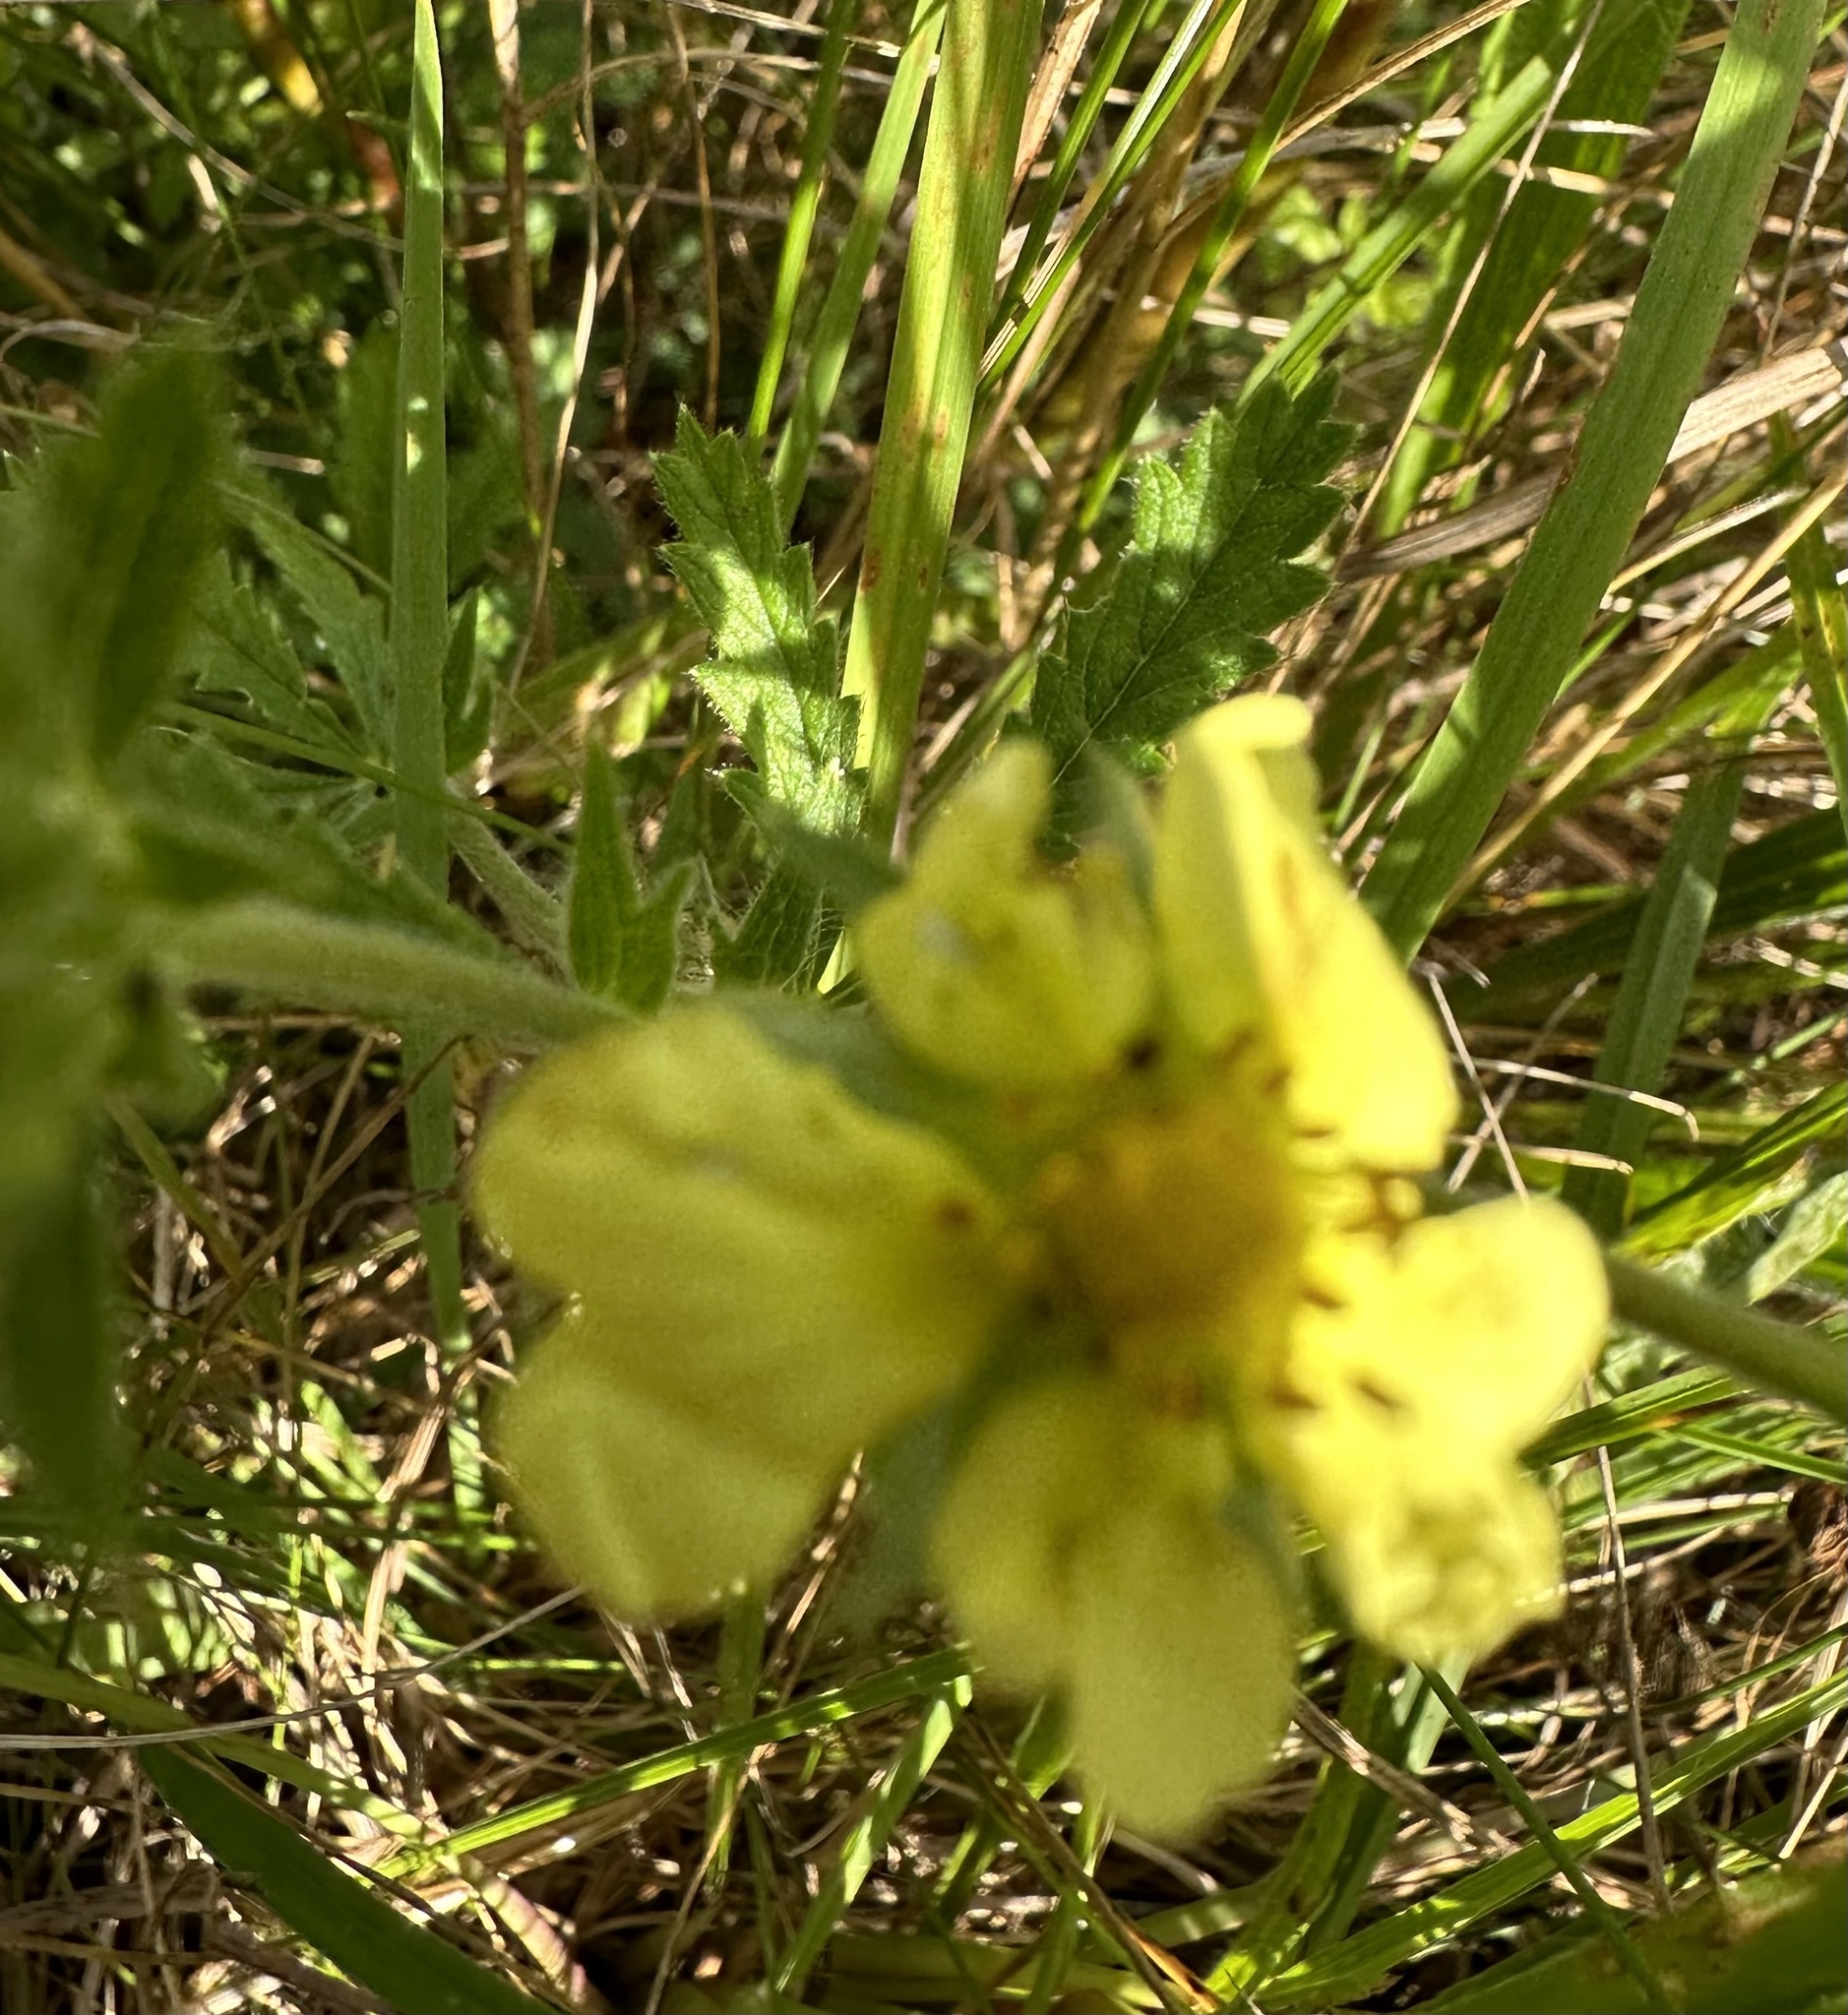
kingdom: Plantae
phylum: Tracheophyta
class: Magnoliopsida
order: Rosales
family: Rosaceae
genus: Potentilla
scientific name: Potentilla recta
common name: Sulphur cinquefoil
